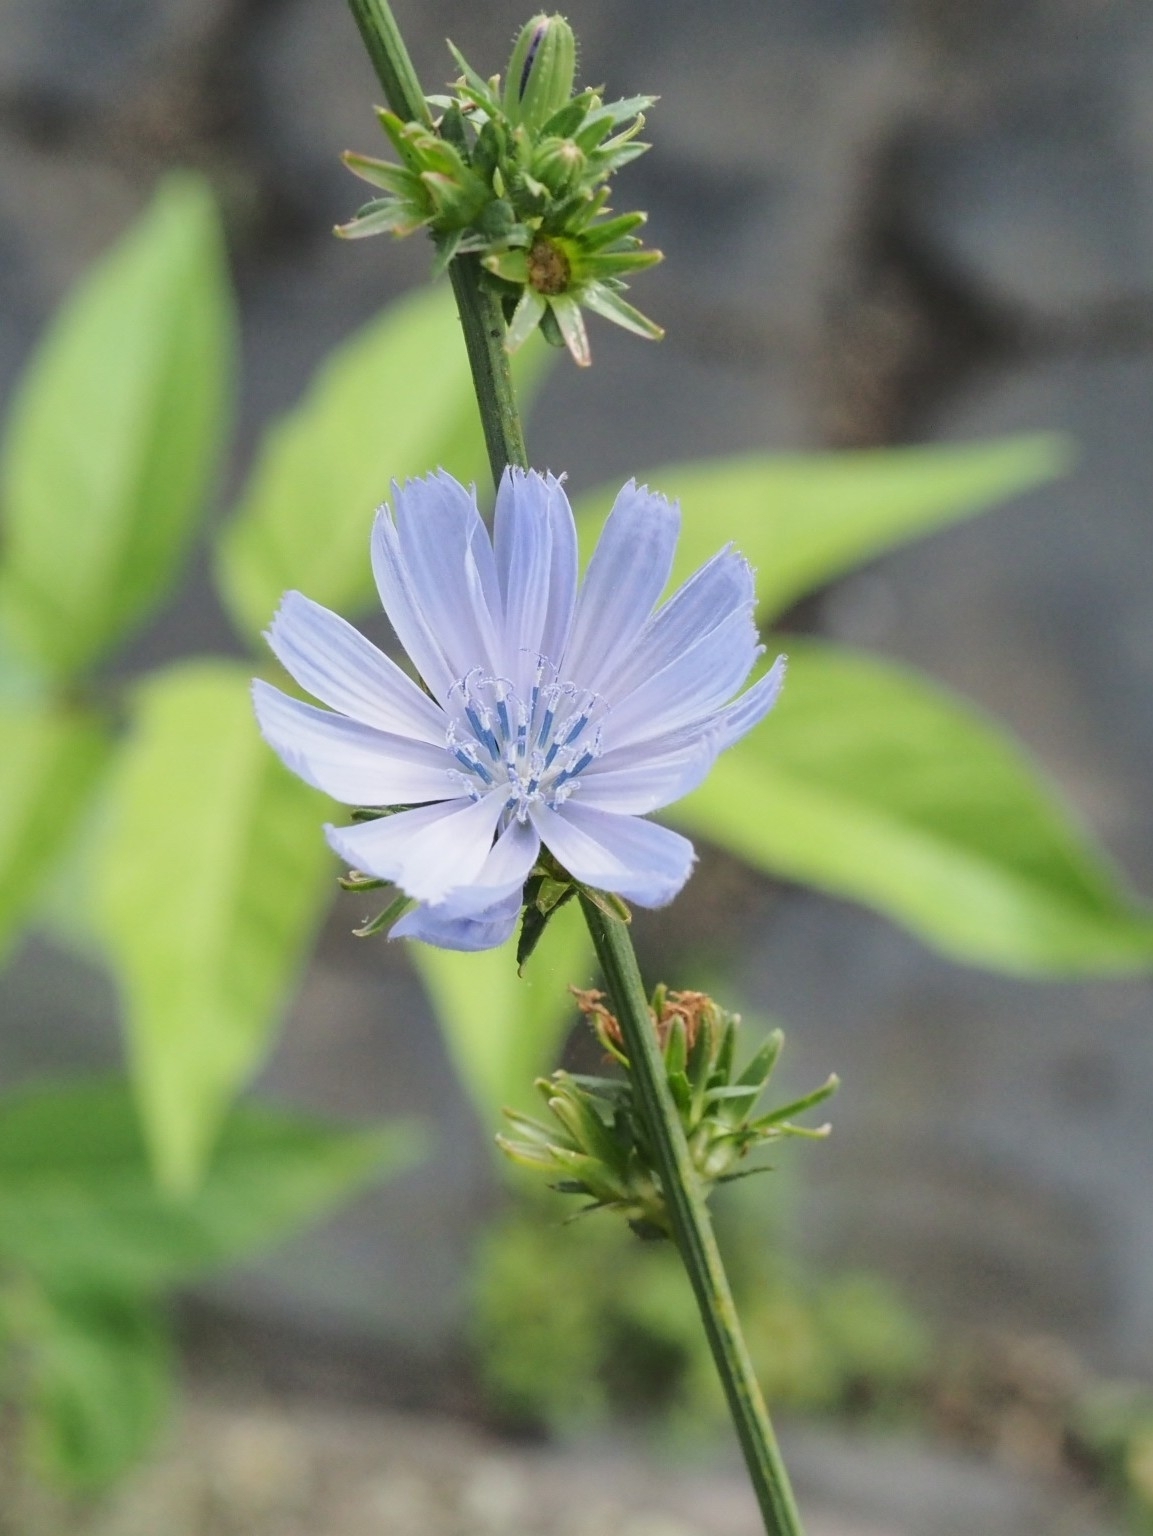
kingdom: Plantae
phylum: Tracheophyta
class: Magnoliopsida
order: Asterales
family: Asteraceae
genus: Cichorium
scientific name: Cichorium intybus
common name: Chicory
